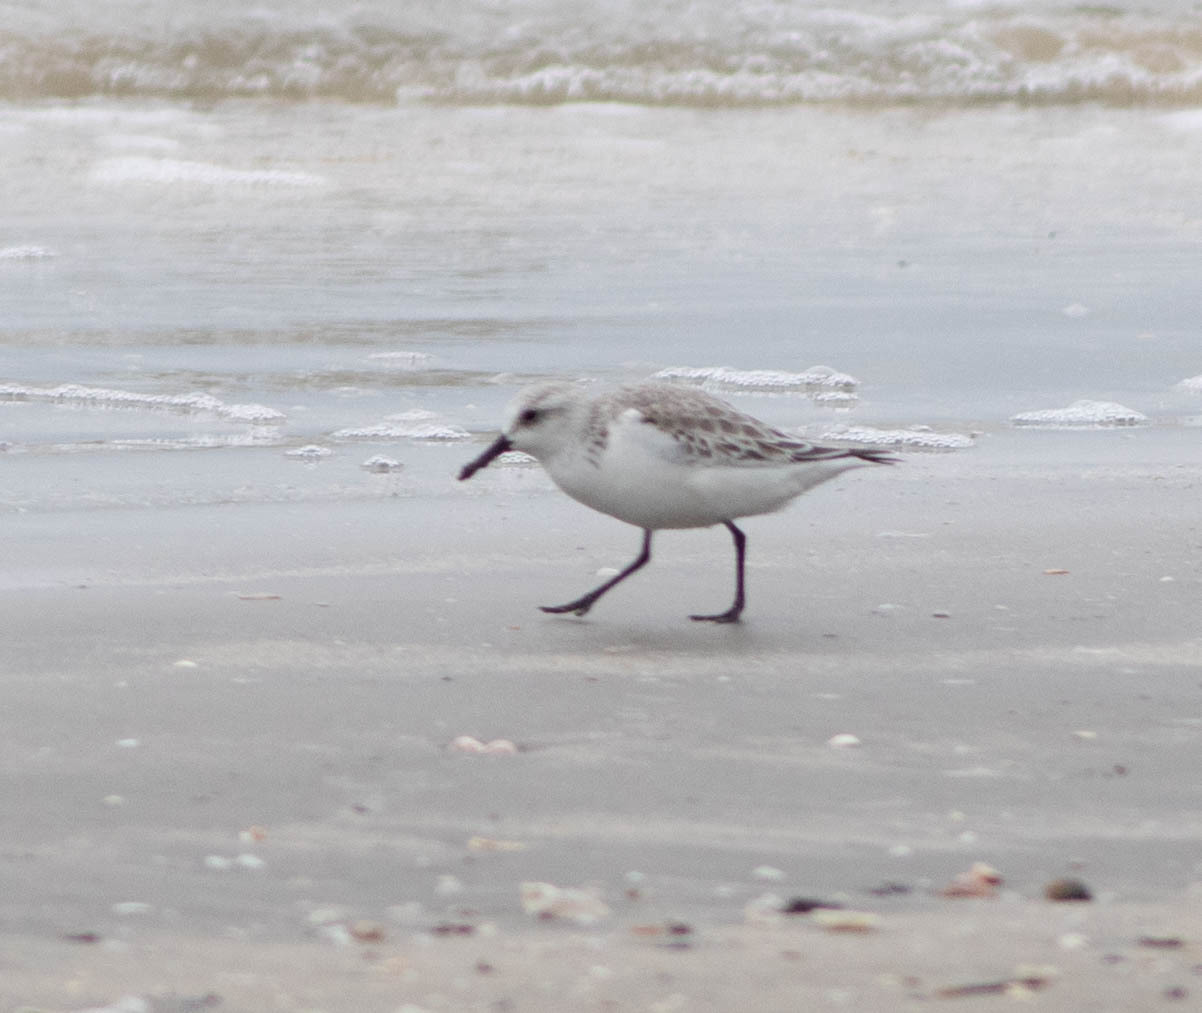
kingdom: Animalia
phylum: Chordata
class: Aves
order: Charadriiformes
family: Scolopacidae
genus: Calidris
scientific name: Calidris alba
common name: Sanderling
